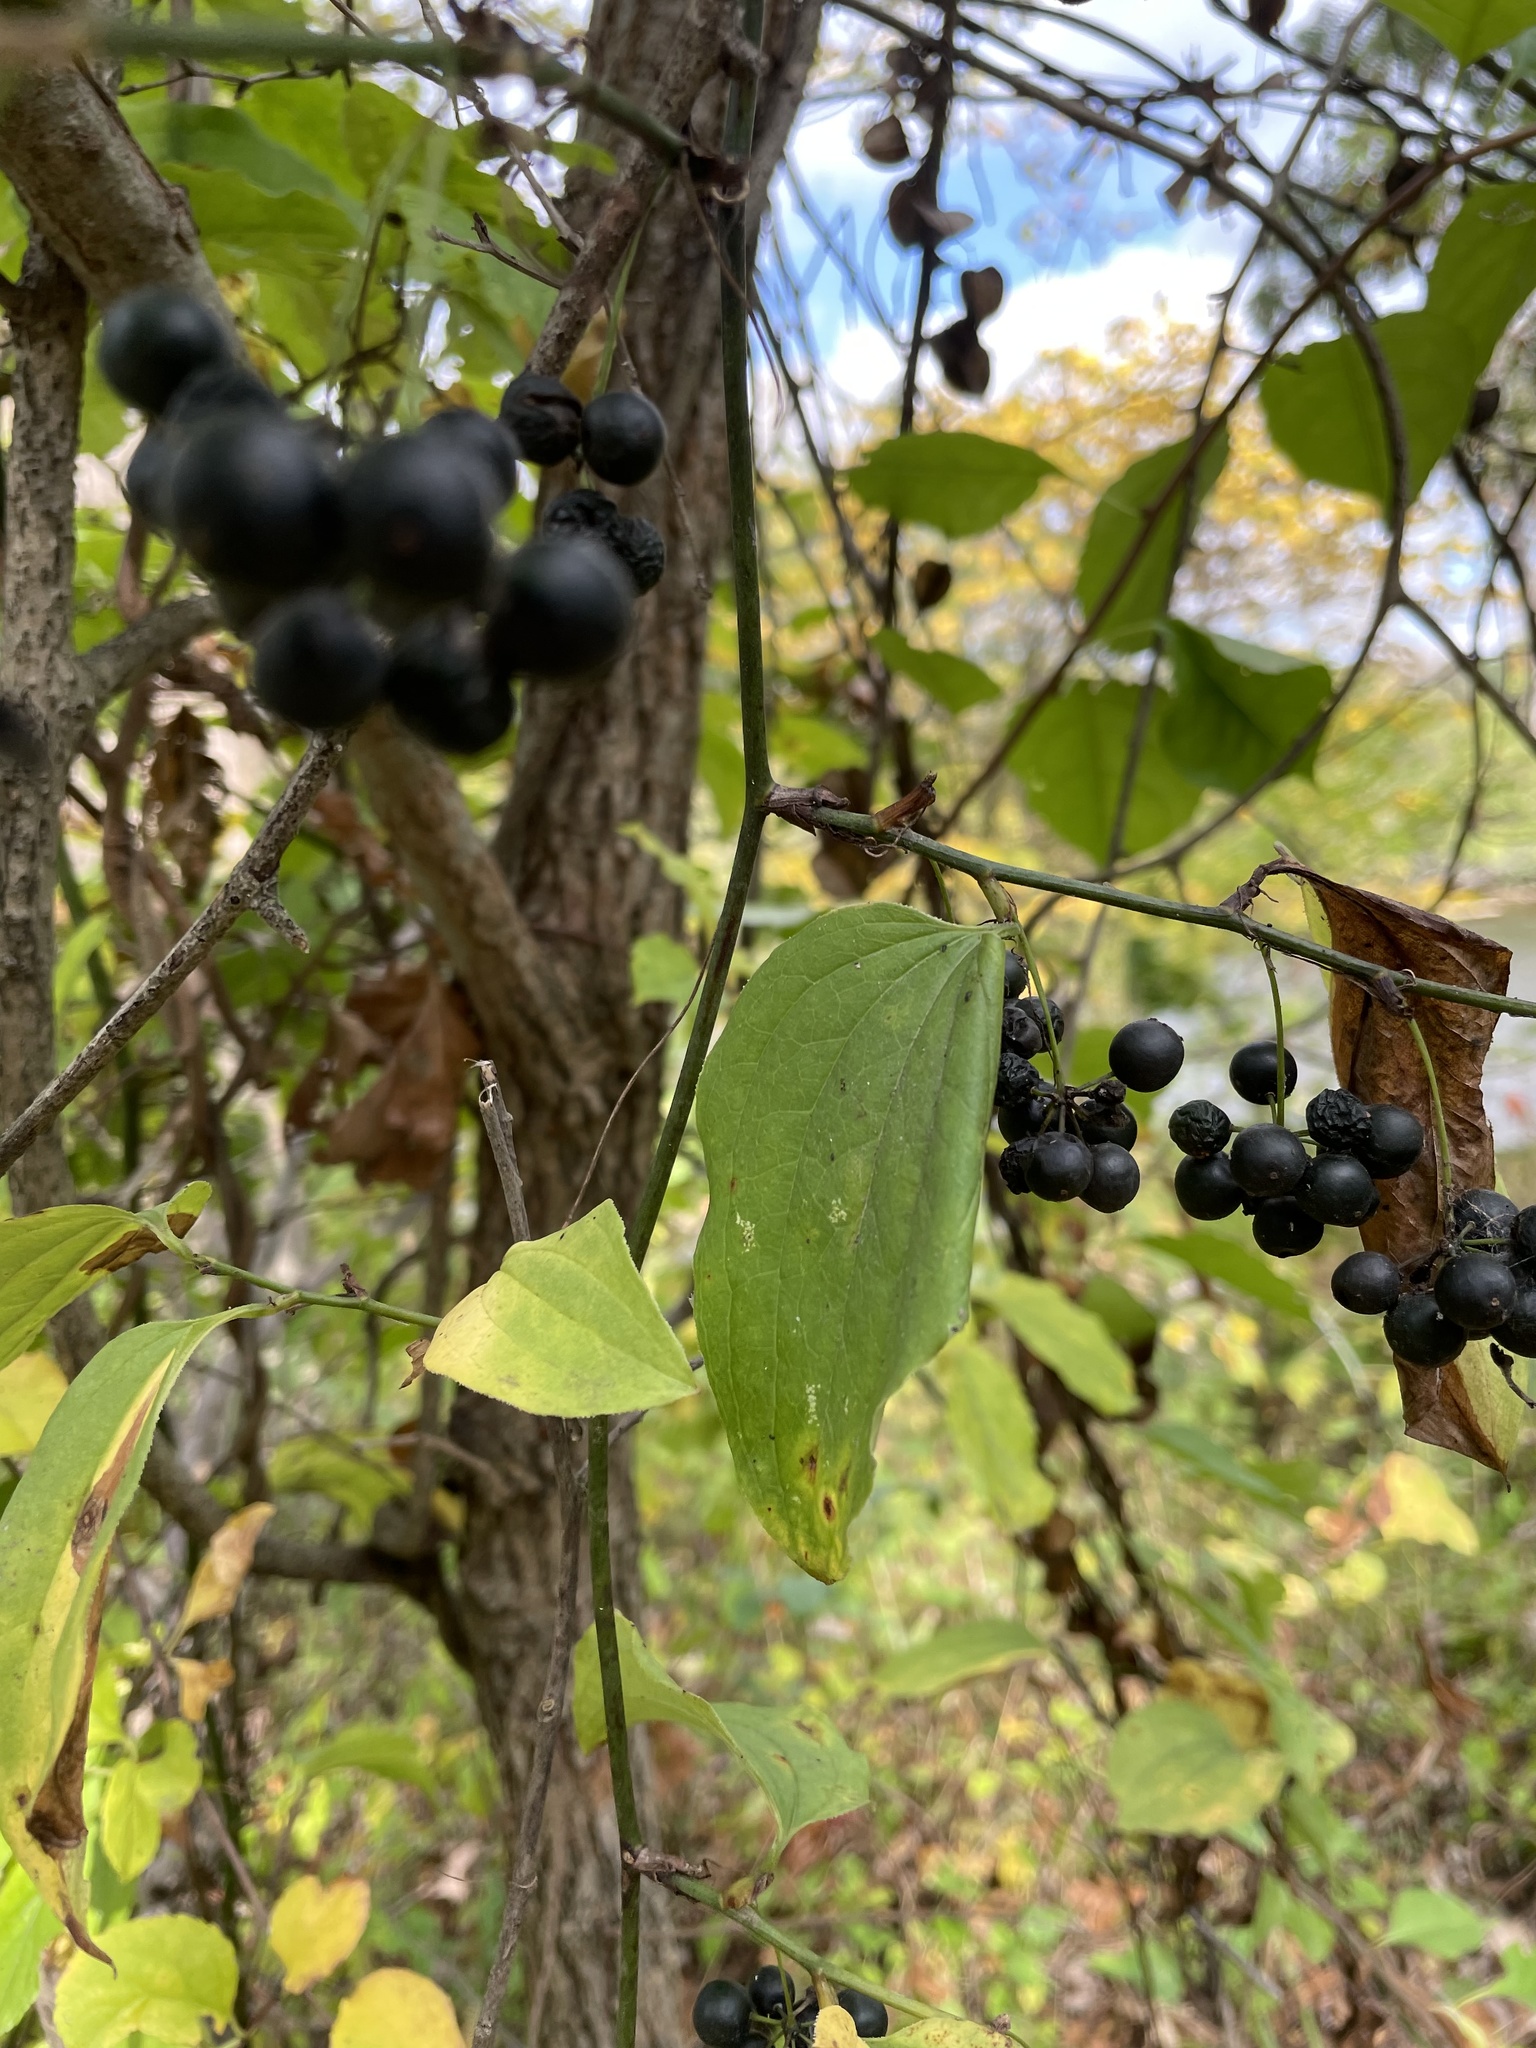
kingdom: Plantae
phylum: Tracheophyta
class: Liliopsida
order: Liliales
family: Smilacaceae
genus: Smilax
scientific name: Smilax tamnoides
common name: Hellfetter
